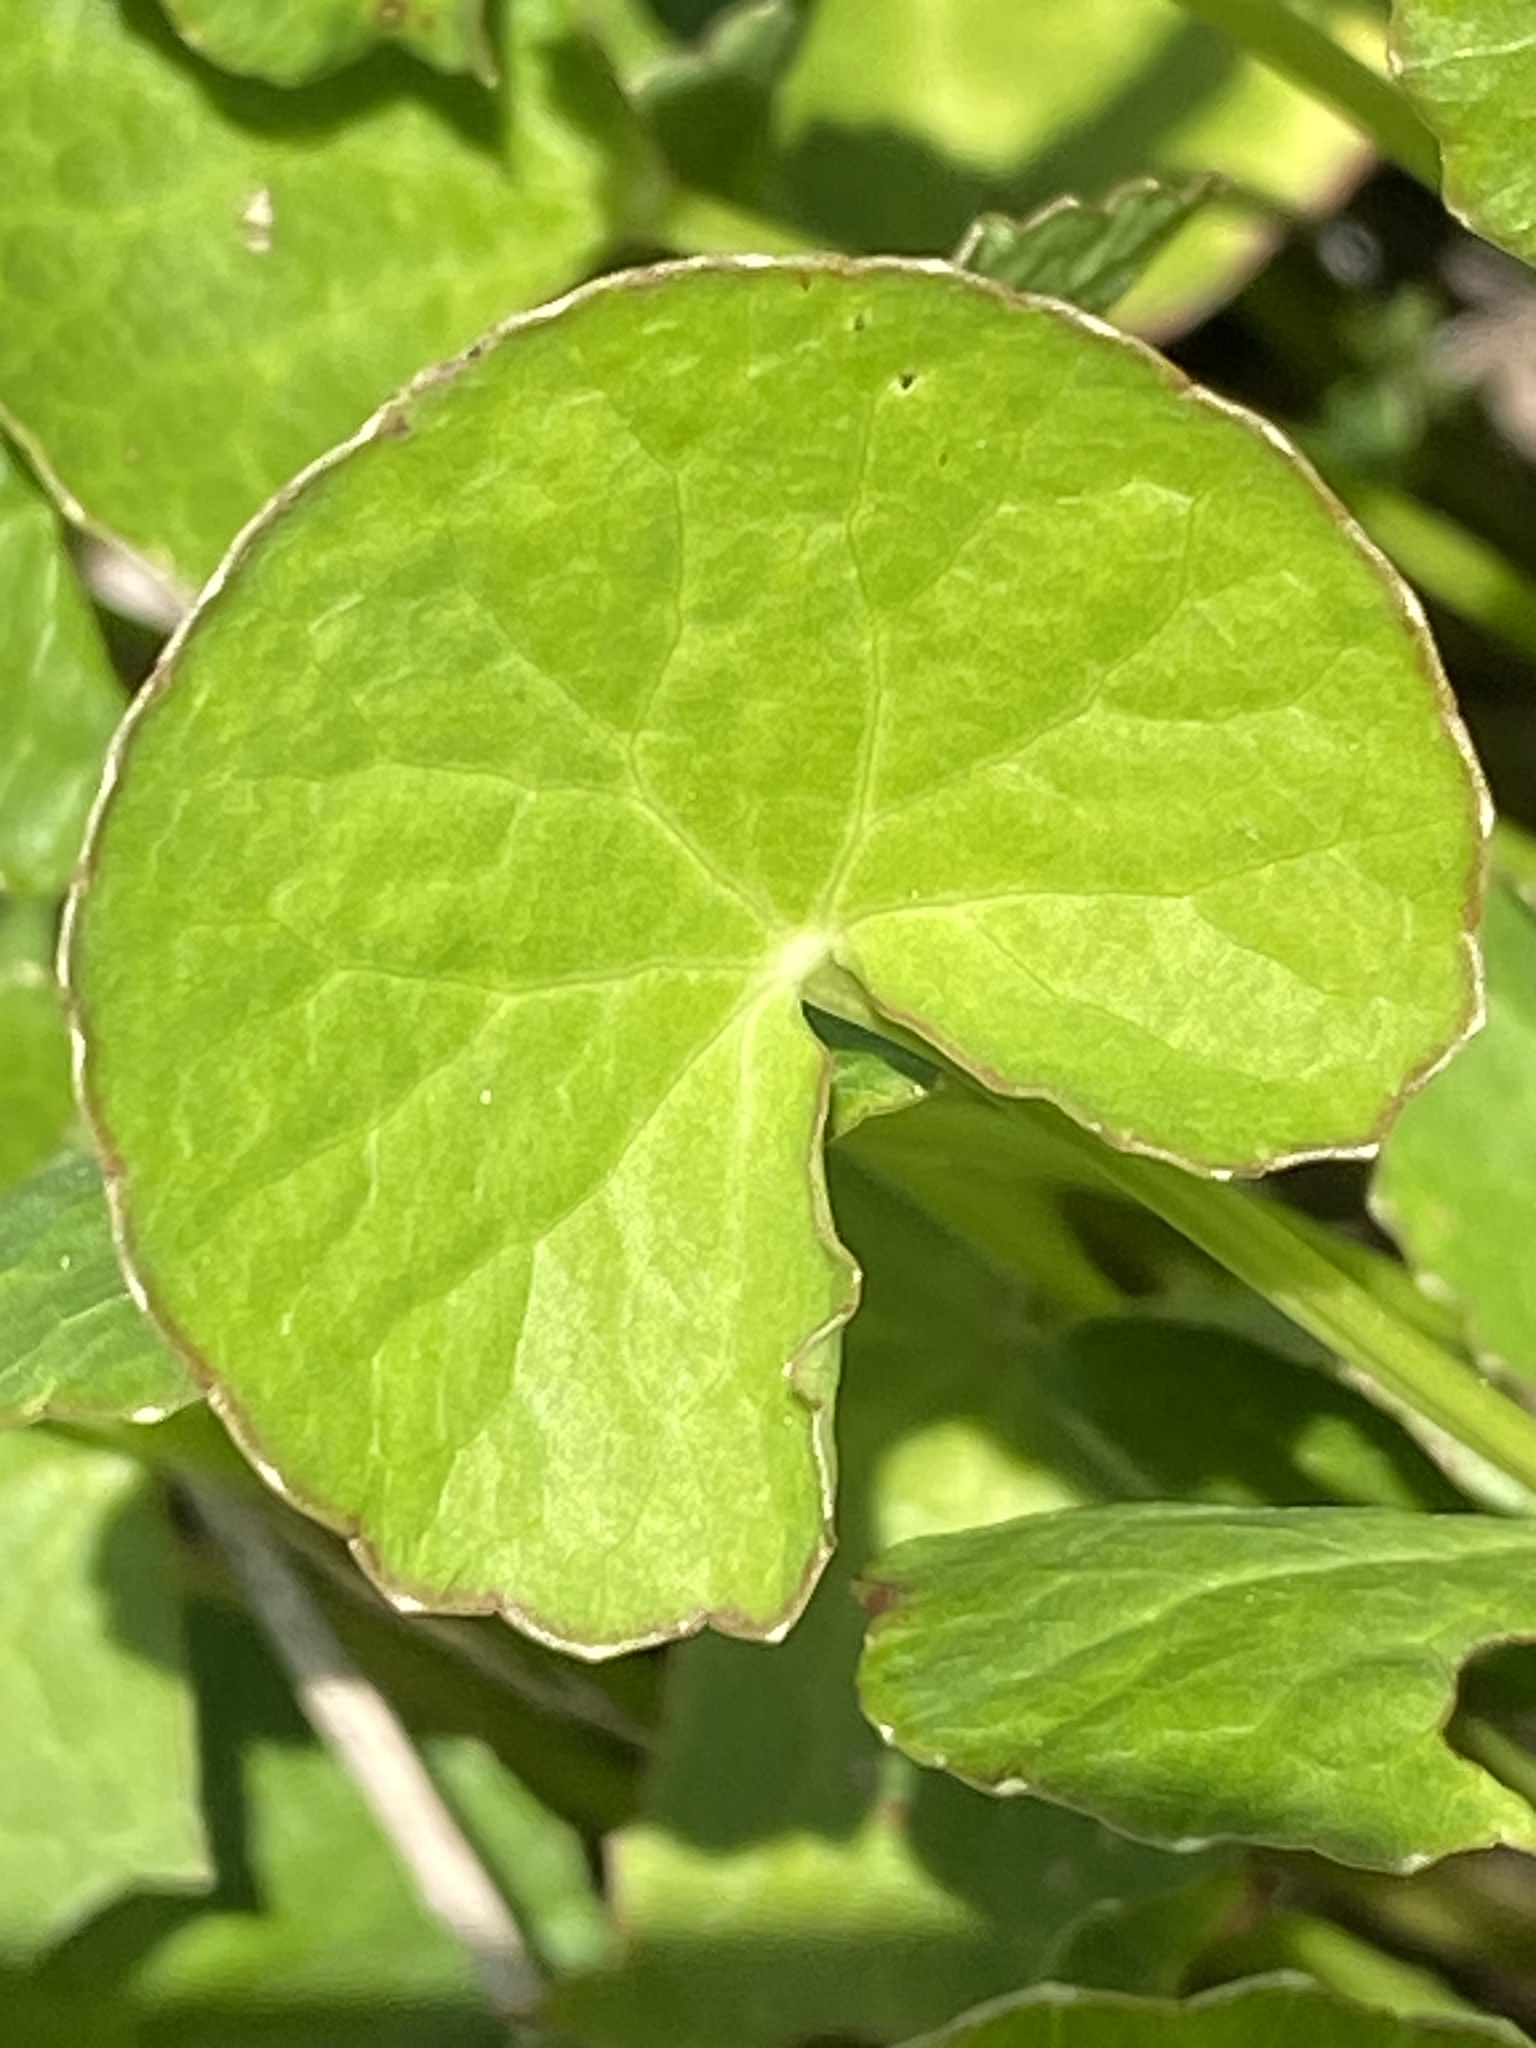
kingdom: Plantae
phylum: Tracheophyta
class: Magnoliopsida
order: Apiales
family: Apiaceae
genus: Centella
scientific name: Centella asiatica
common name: Spadeleaf
